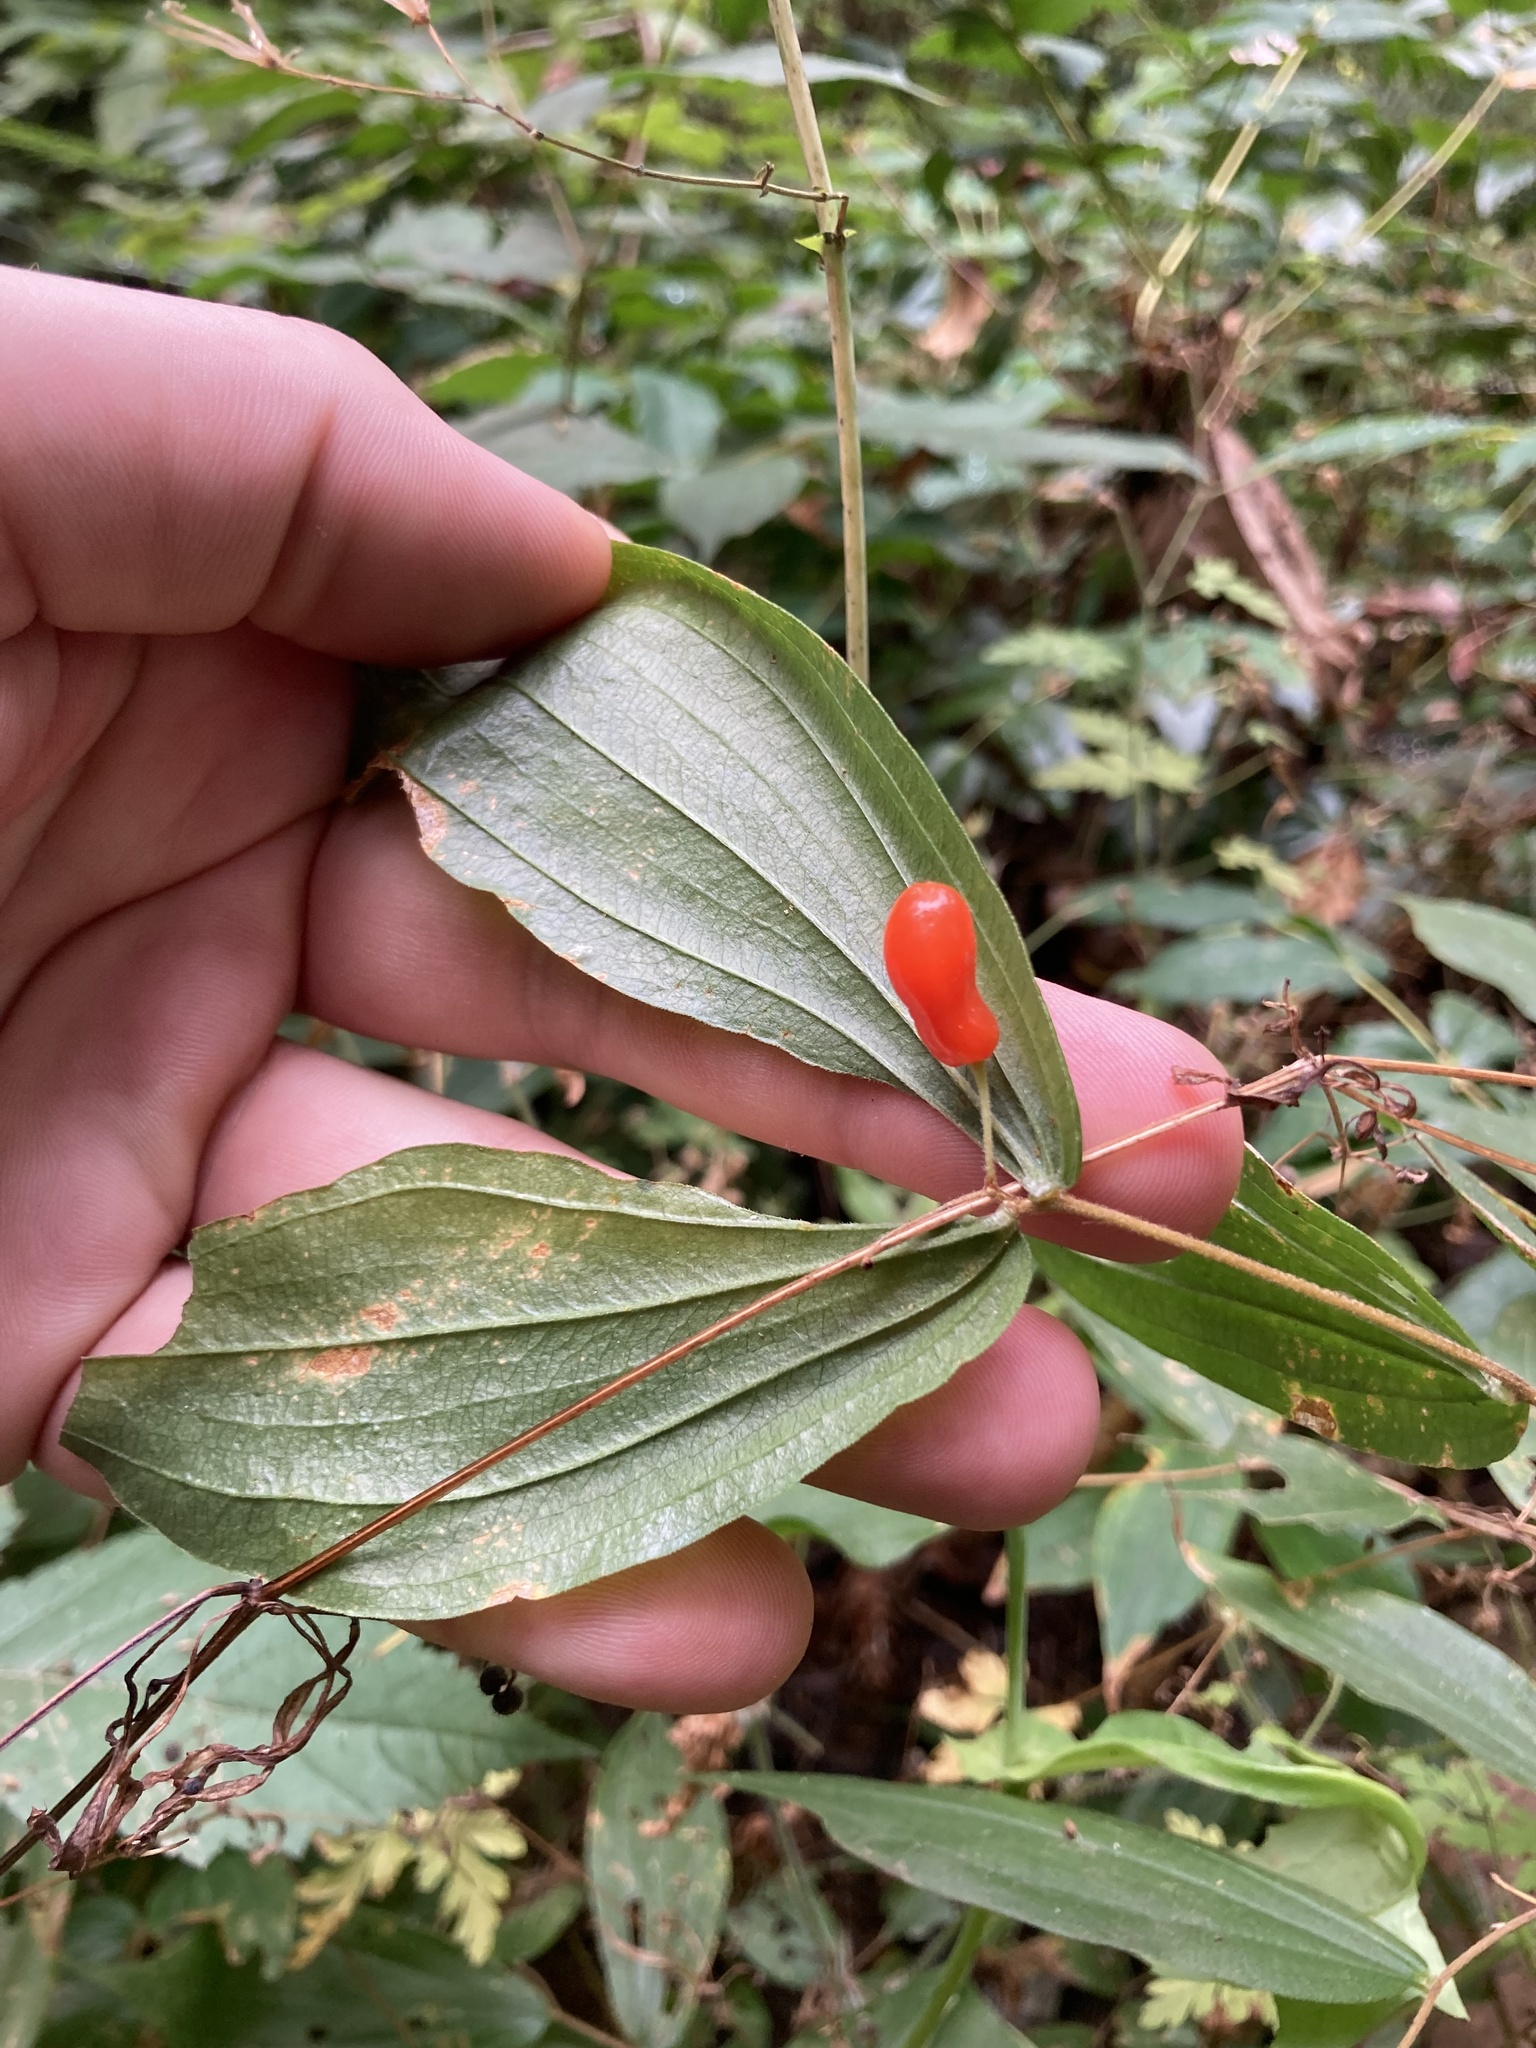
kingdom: Plantae
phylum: Tracheophyta
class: Liliopsida
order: Liliales
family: Liliaceae
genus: Prosartes
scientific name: Prosartes hookeri
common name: Fairy-bells
